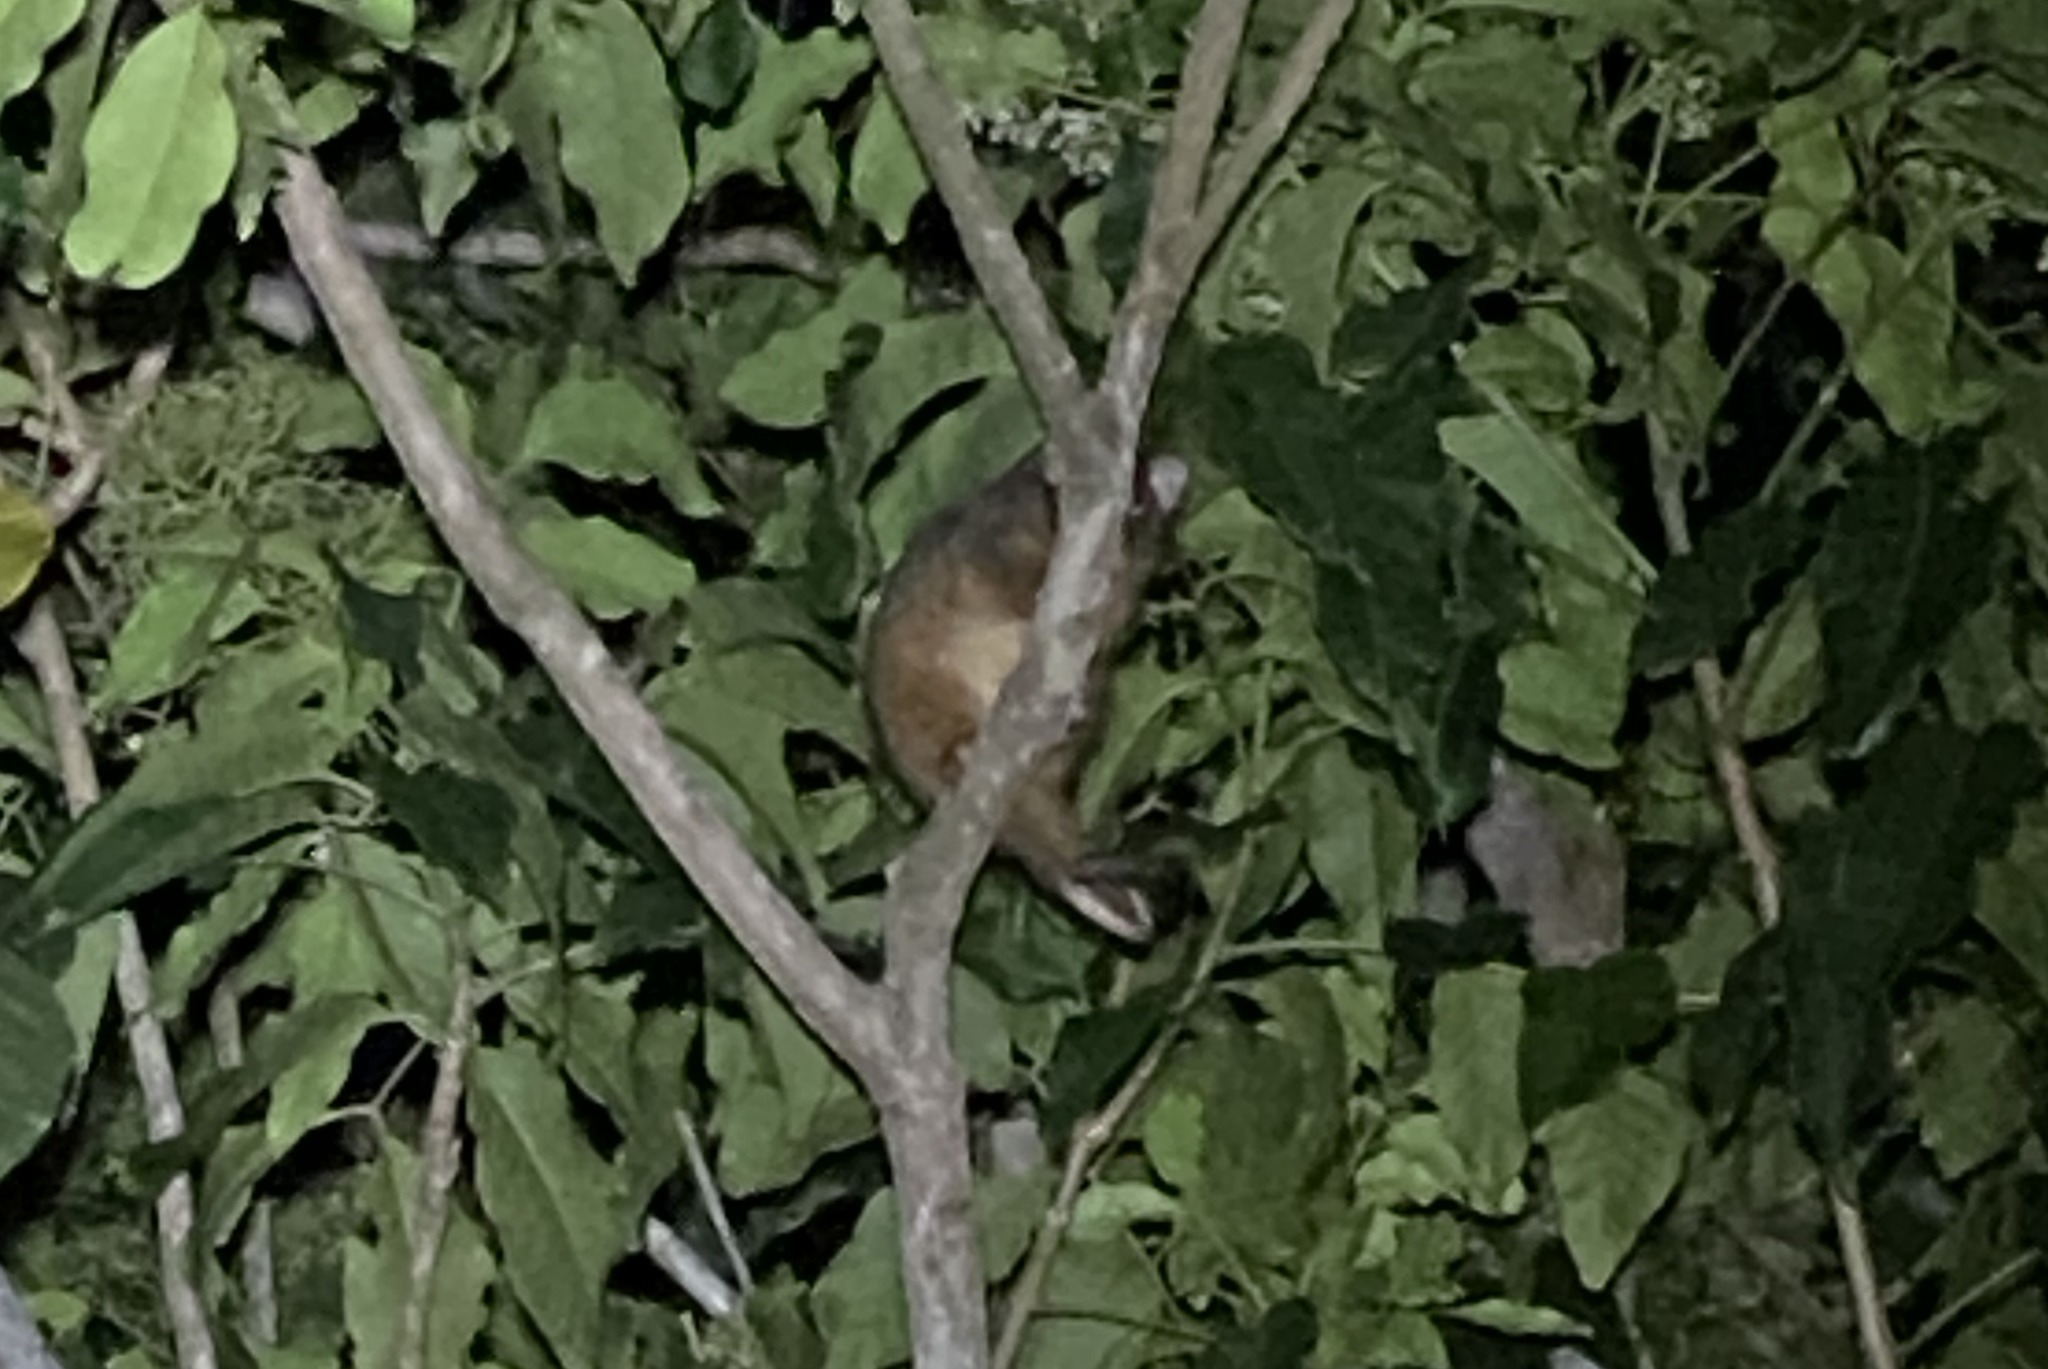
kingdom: Animalia
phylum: Chordata
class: Mammalia
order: Diprotodontia
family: Pseudocheiridae
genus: Pseudocheirus
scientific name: Pseudocheirus peregrinus
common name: Common ringtail possum
